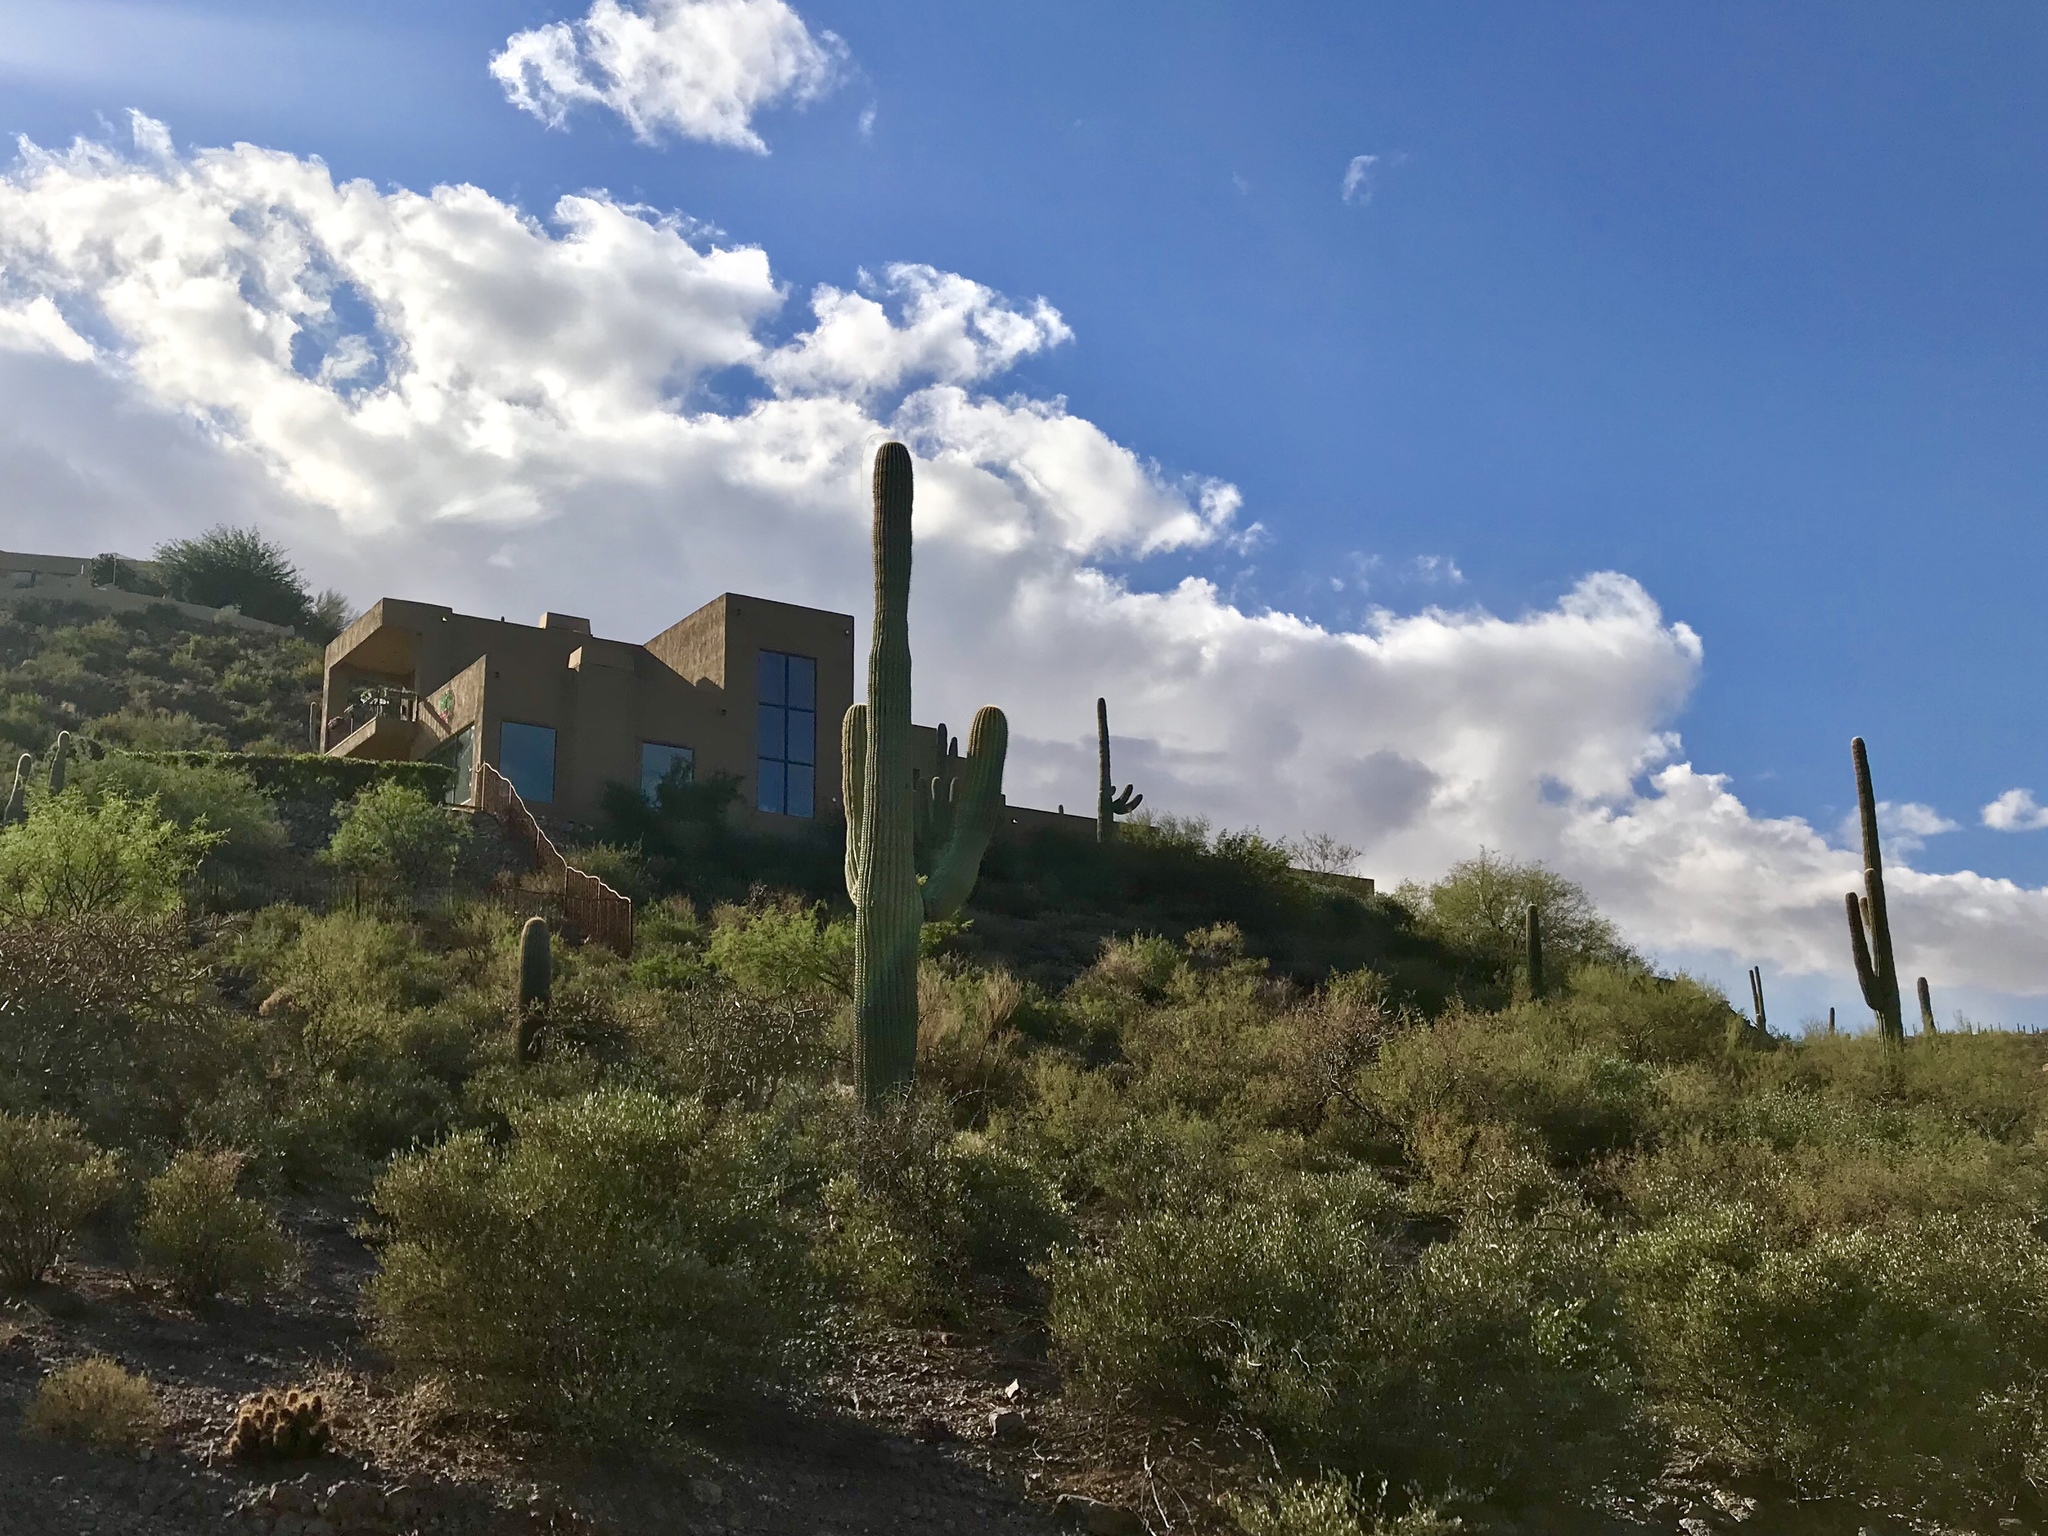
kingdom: Plantae
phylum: Tracheophyta
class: Magnoliopsida
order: Caryophyllales
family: Cactaceae
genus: Carnegiea
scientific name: Carnegiea gigantea
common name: Saguaro
